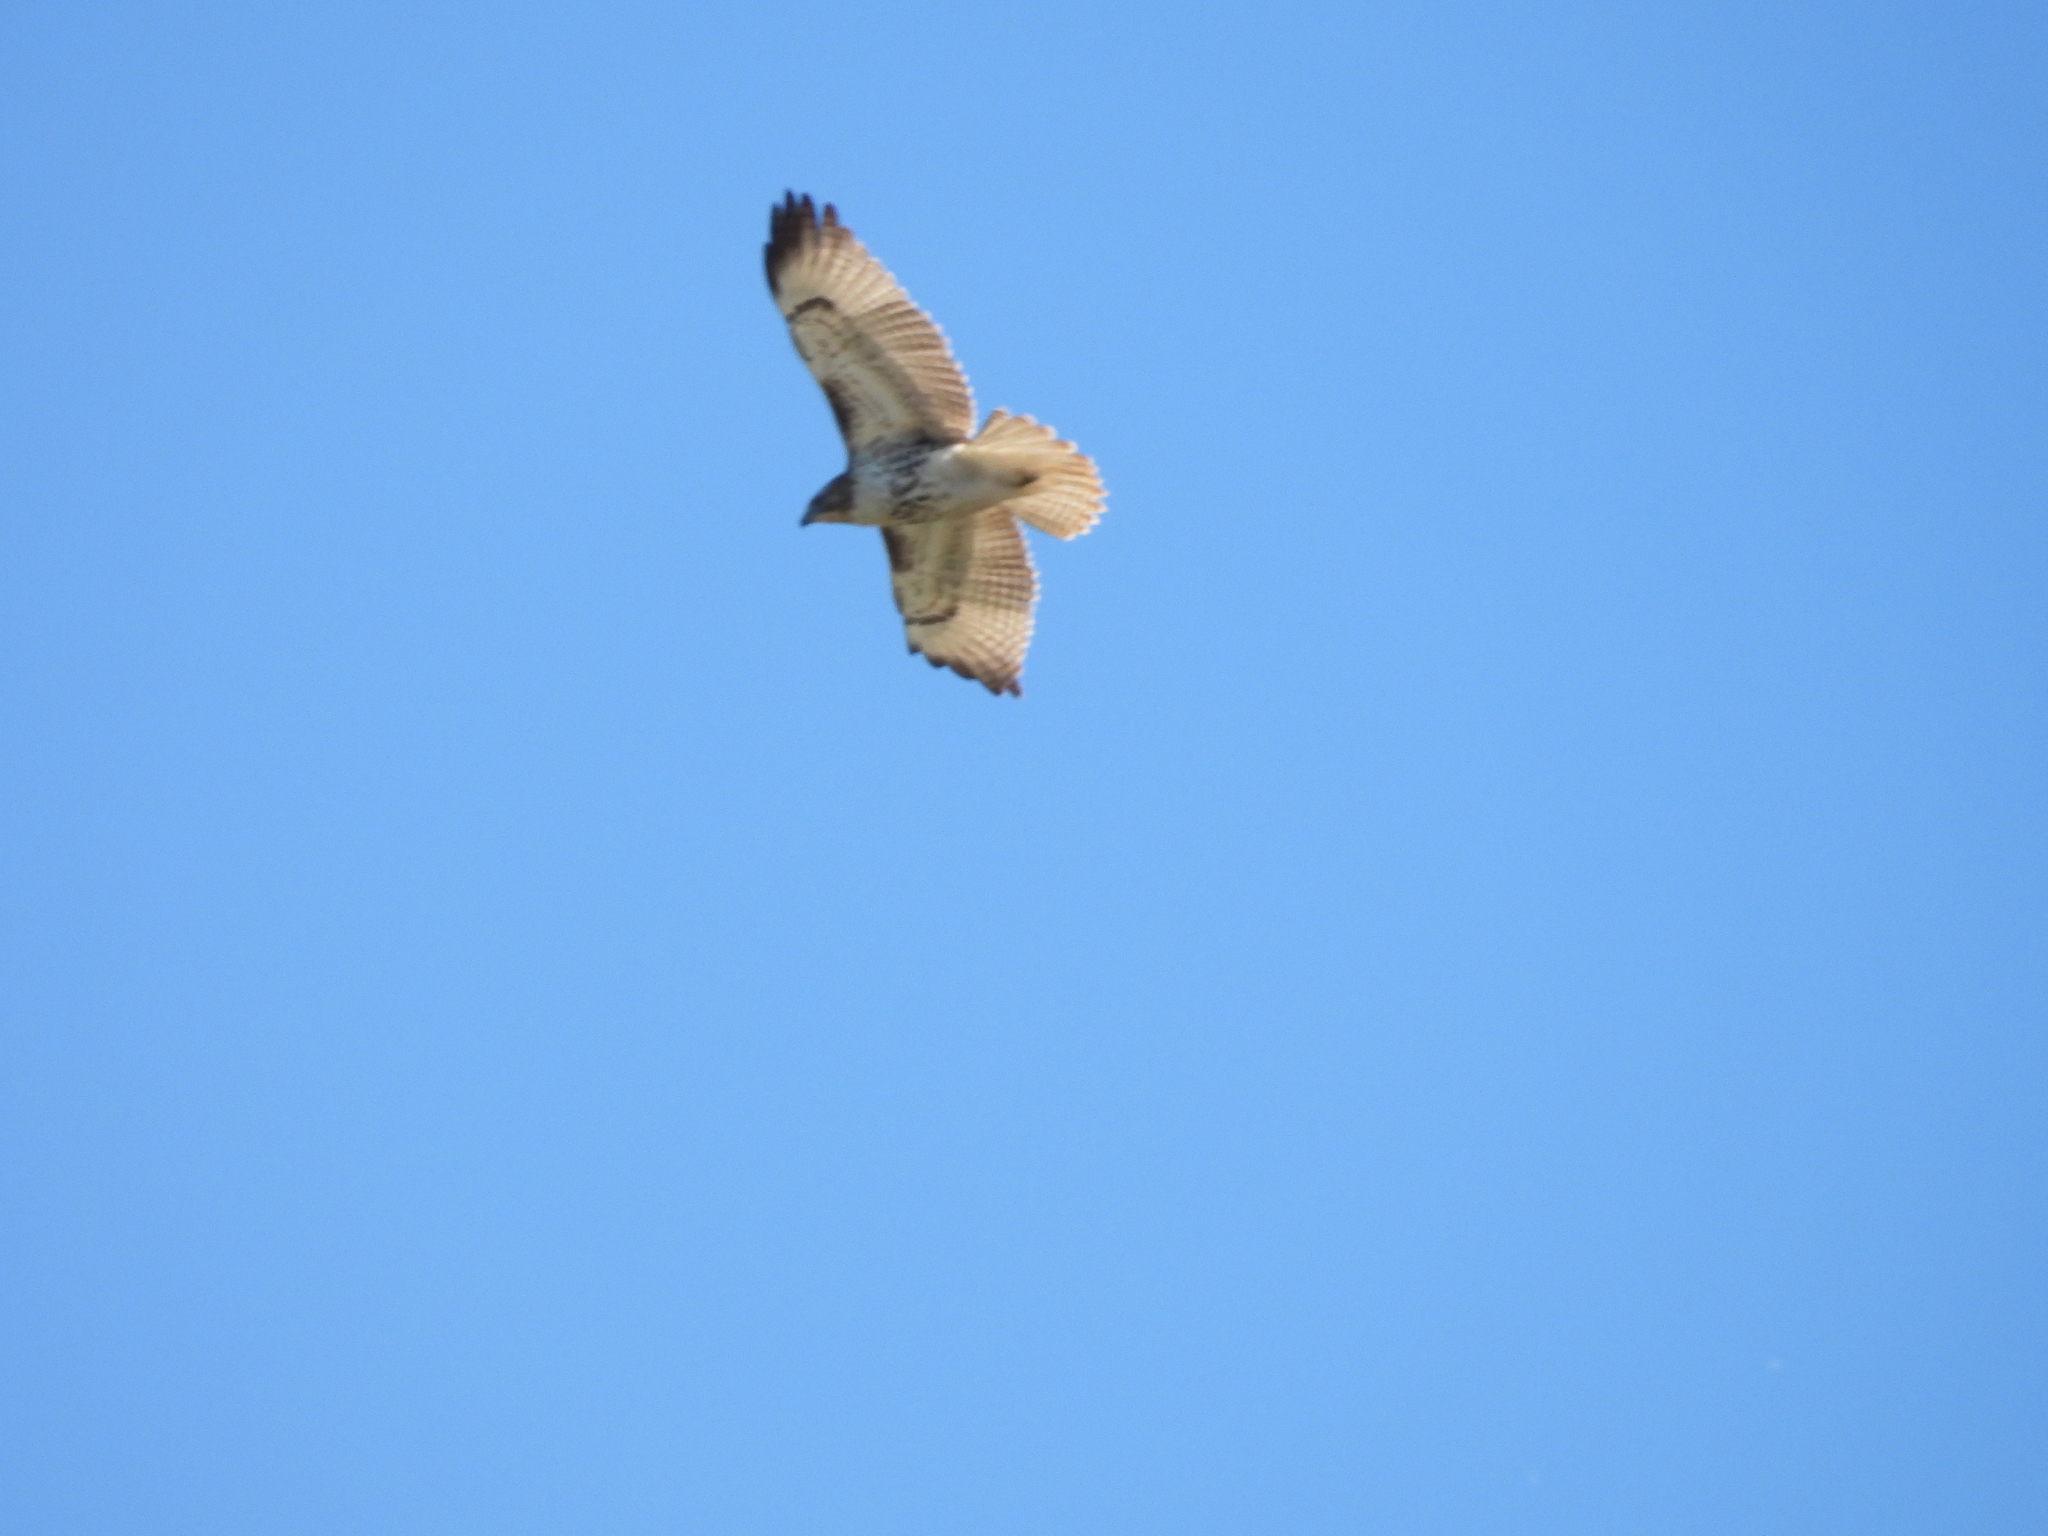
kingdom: Animalia
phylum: Chordata
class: Aves
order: Accipitriformes
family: Accipitridae
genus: Buteo
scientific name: Buteo jamaicensis
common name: Red-tailed hawk
